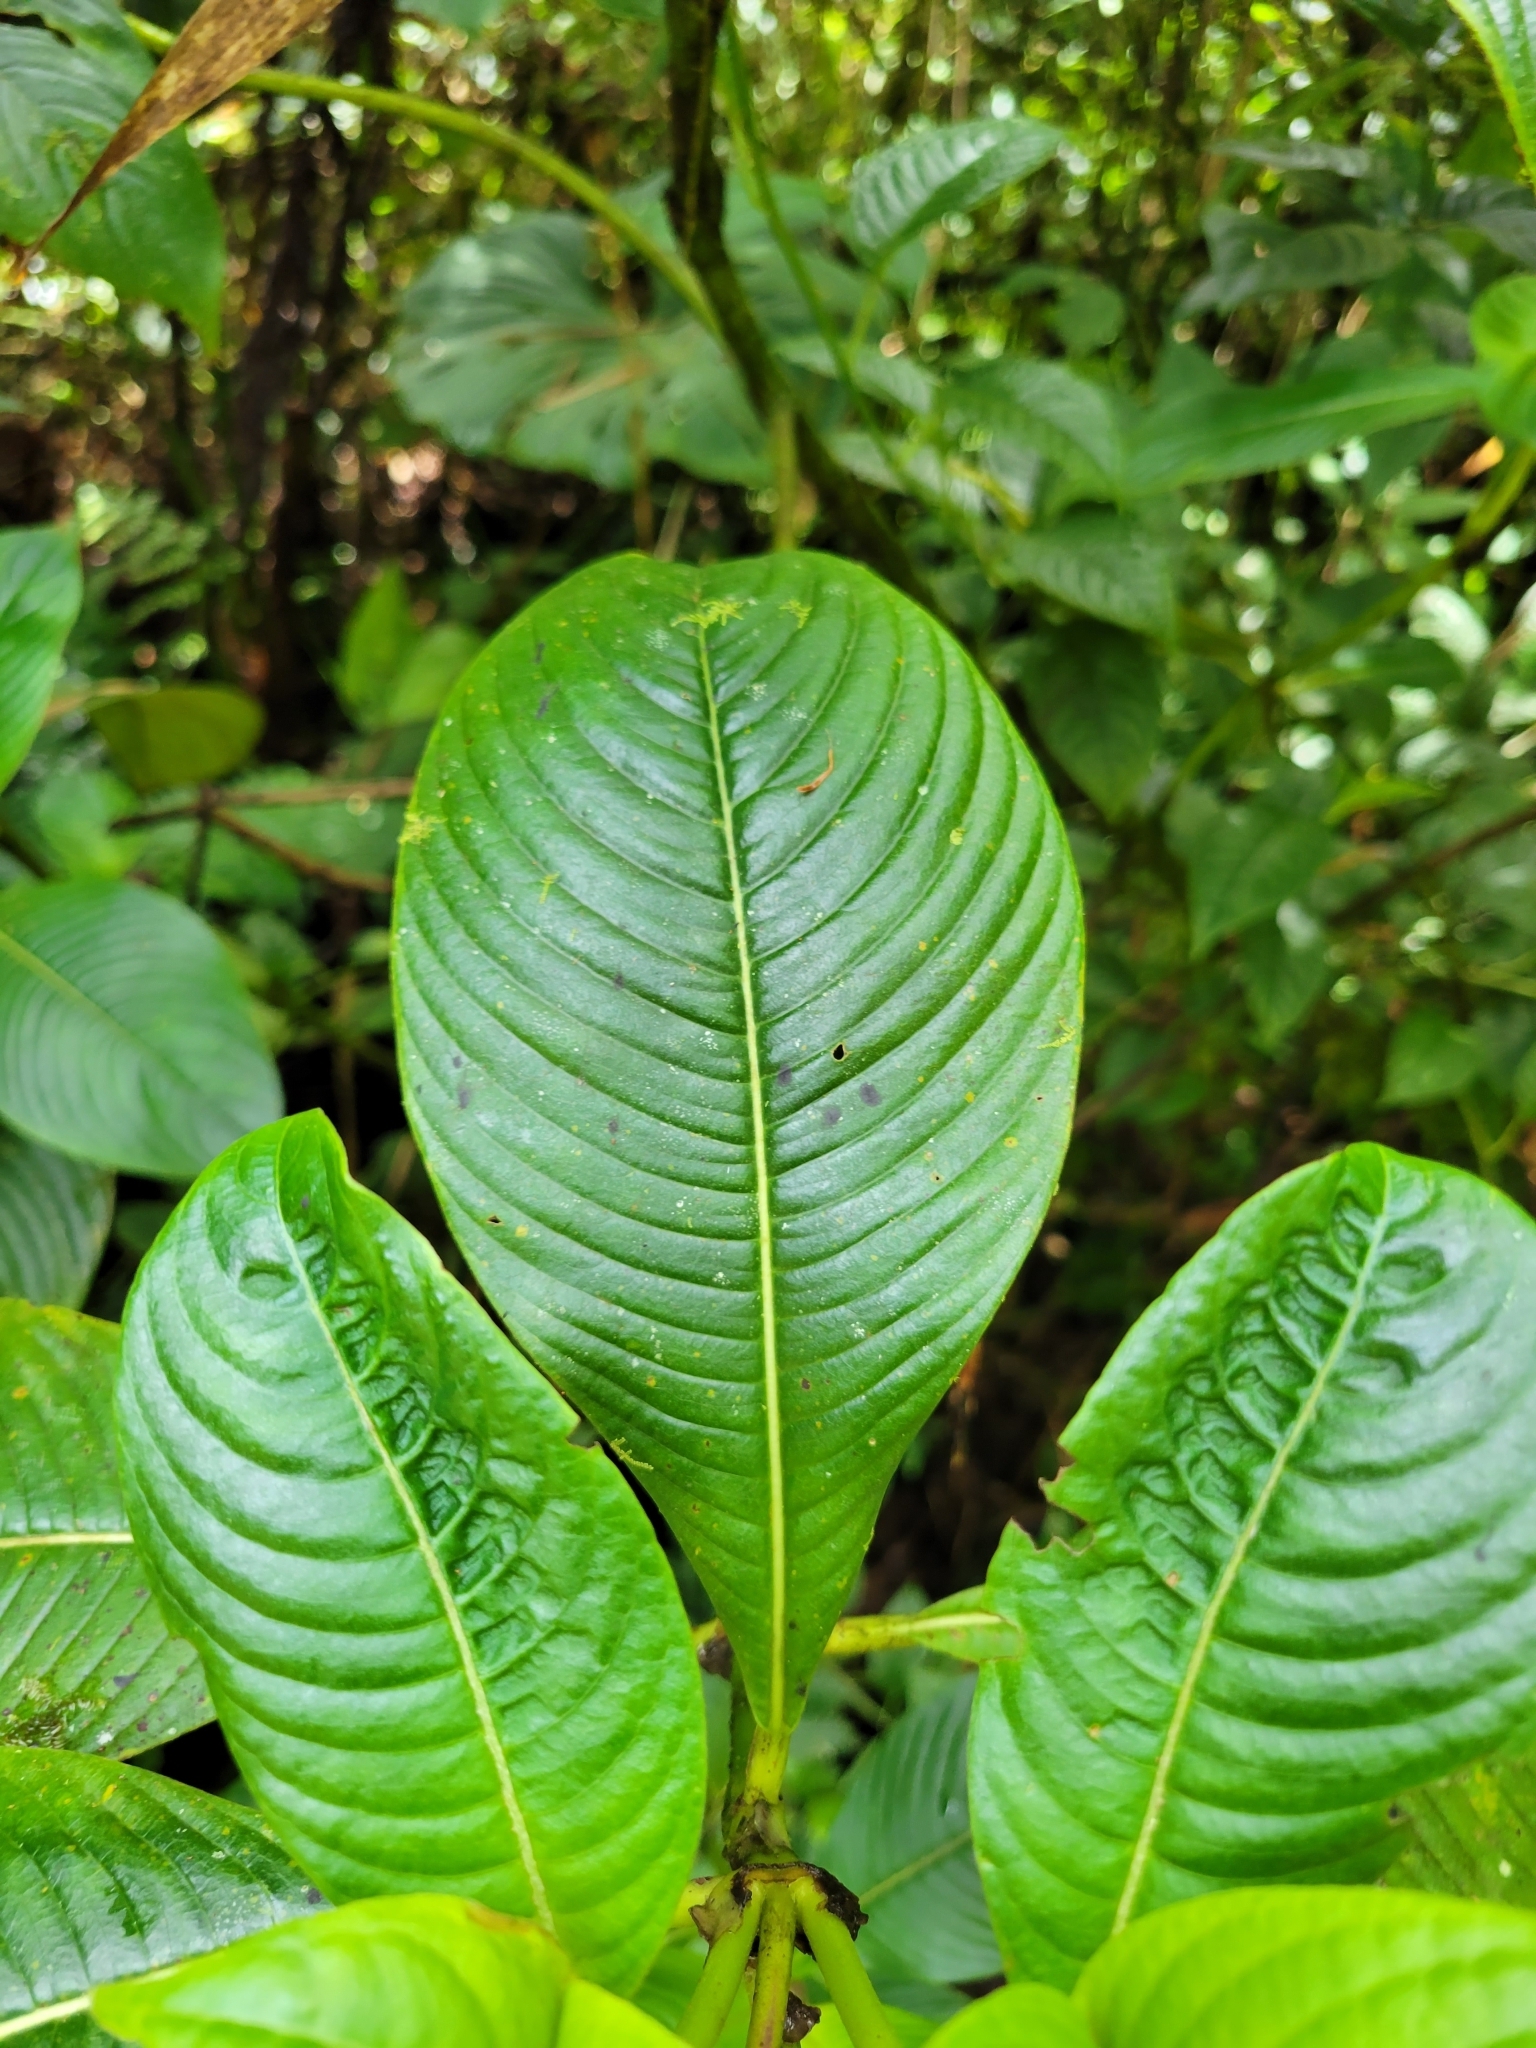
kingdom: Plantae
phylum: Tracheophyta
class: Magnoliopsida
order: Gentianales
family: Rubiaceae
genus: Palicourea
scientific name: Palicourea spathacea
